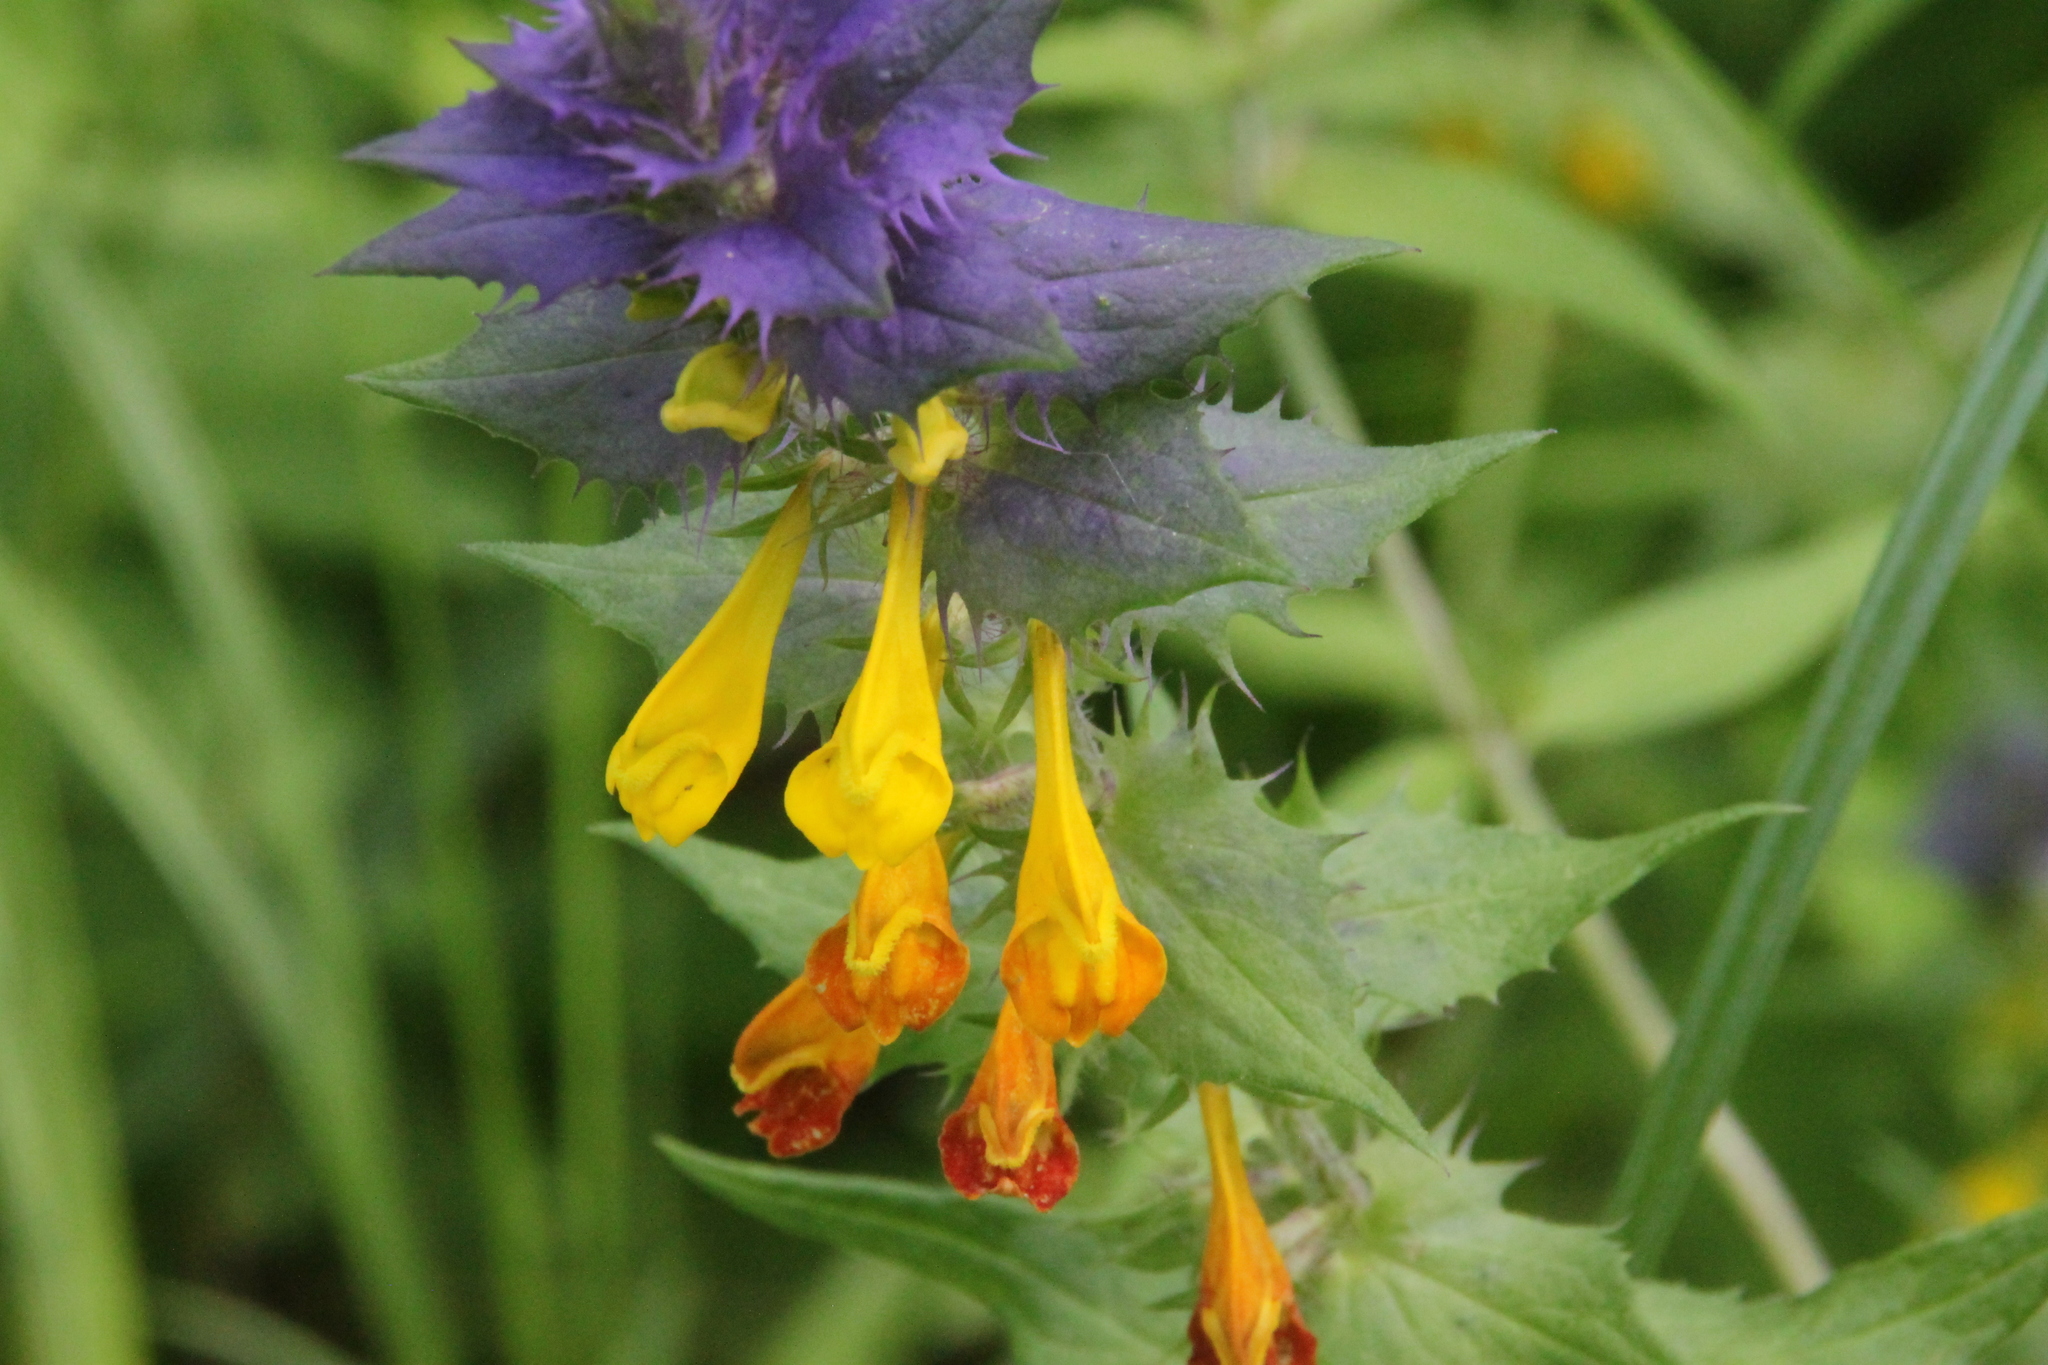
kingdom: Plantae
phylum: Tracheophyta
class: Magnoliopsida
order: Lamiales
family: Orobanchaceae
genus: Melampyrum
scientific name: Melampyrum nemorosum
